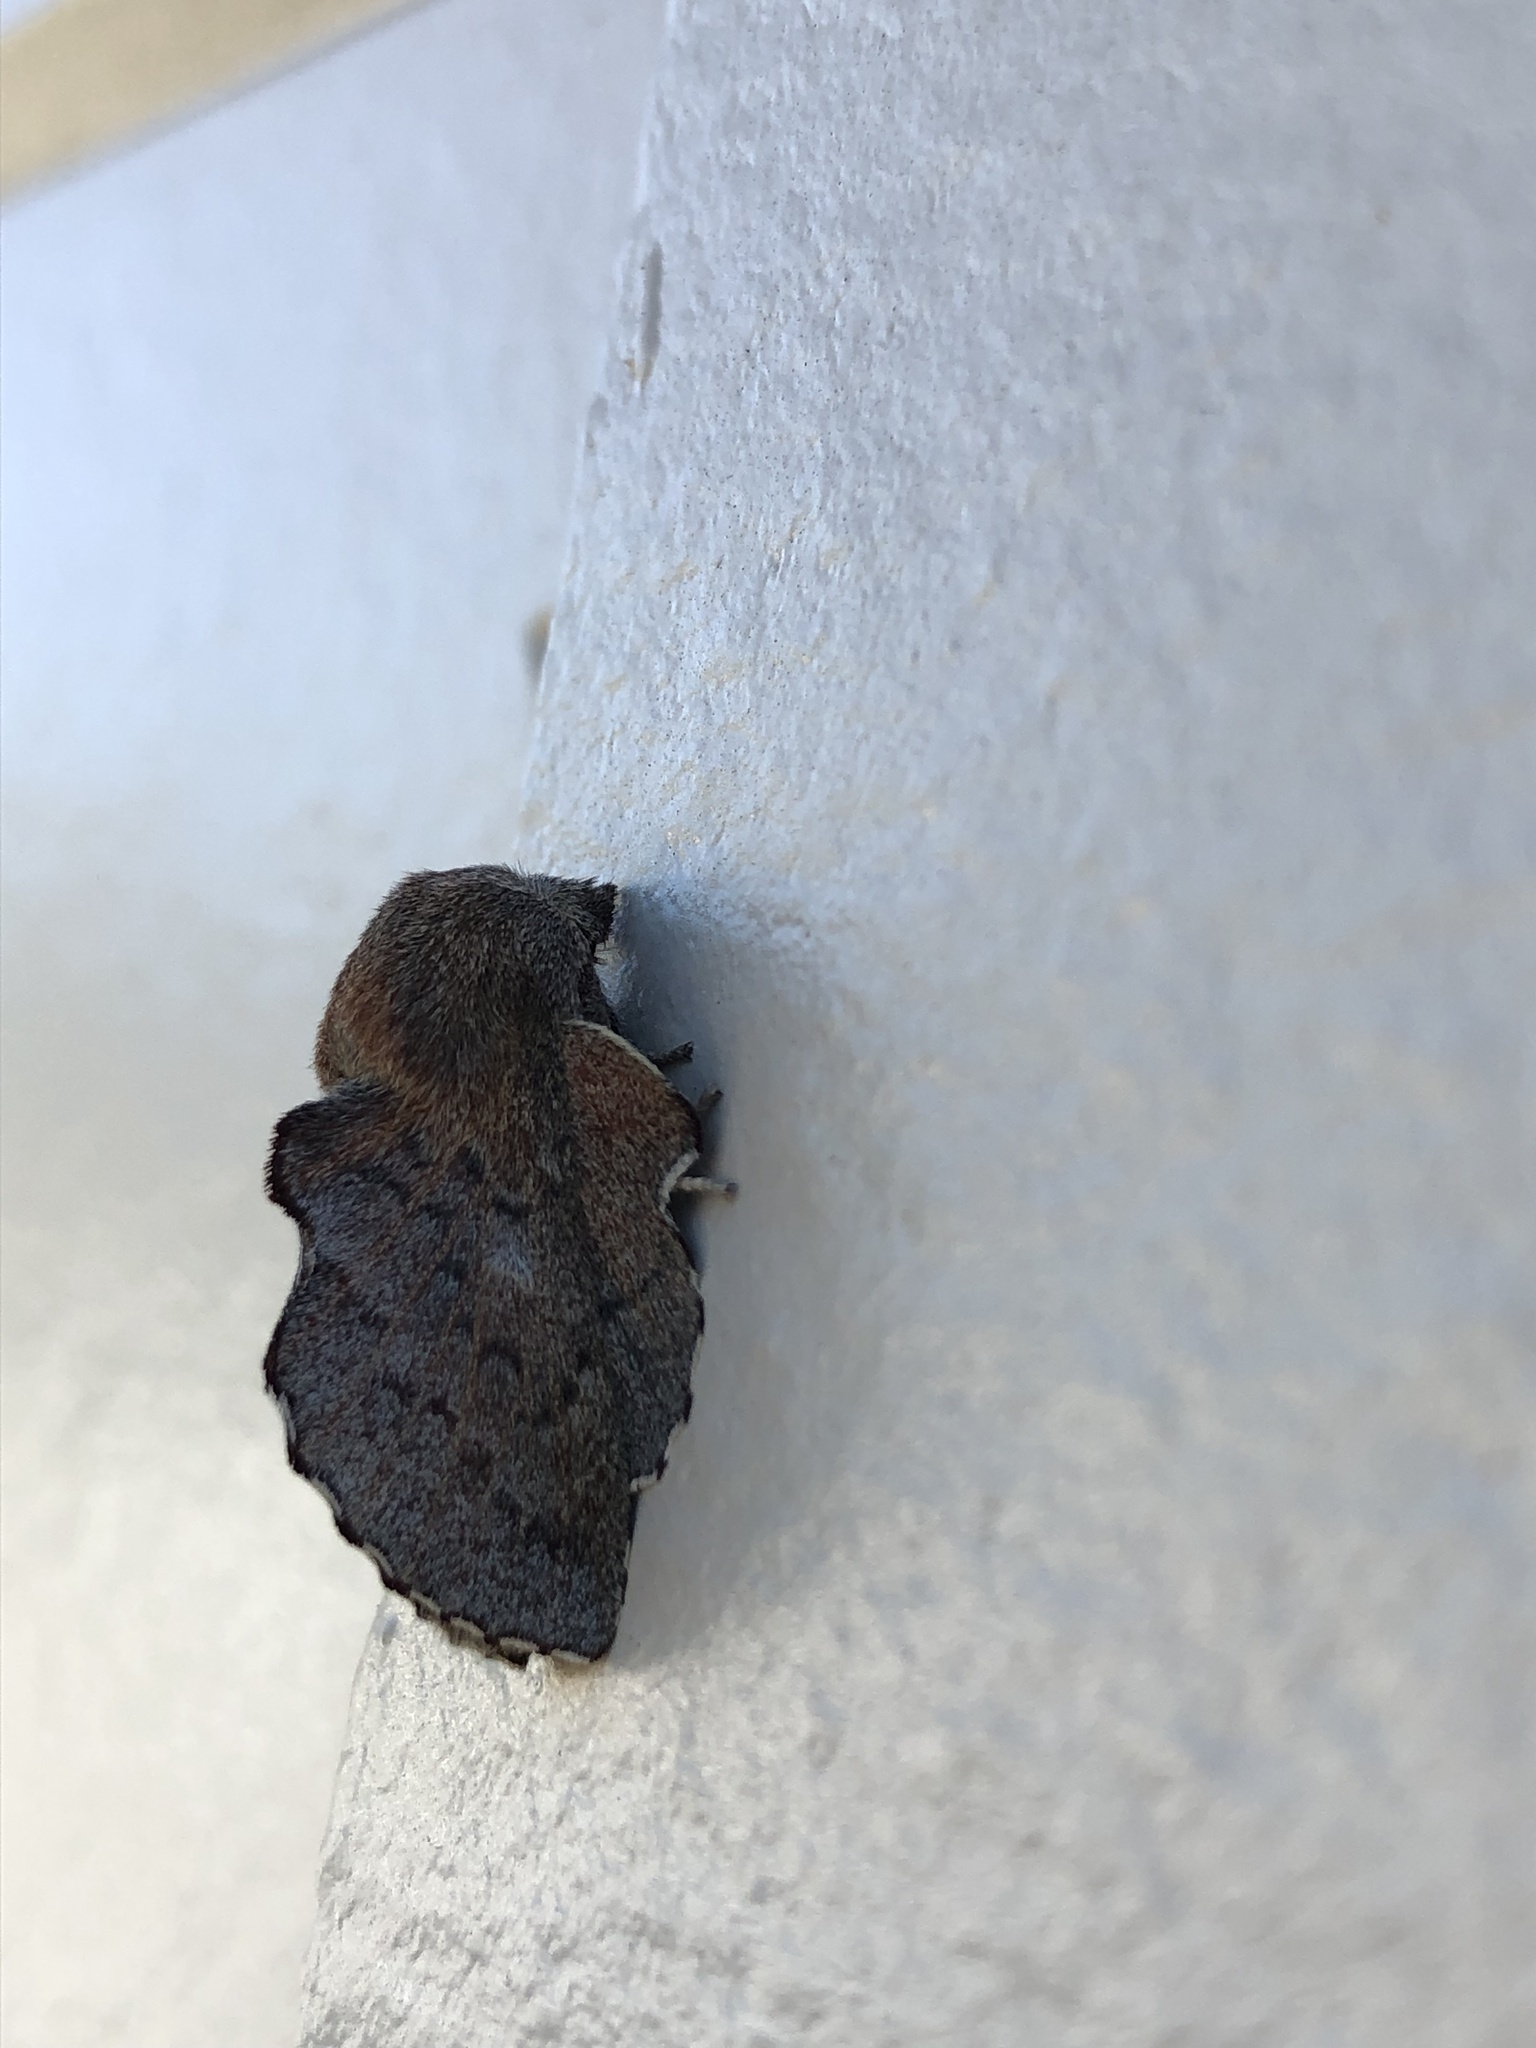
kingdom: Animalia
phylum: Arthropoda
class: Insecta
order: Lepidoptera
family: Lasiocampidae
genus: Phyllodesma
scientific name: Phyllodesma americana
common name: American lappet moth
